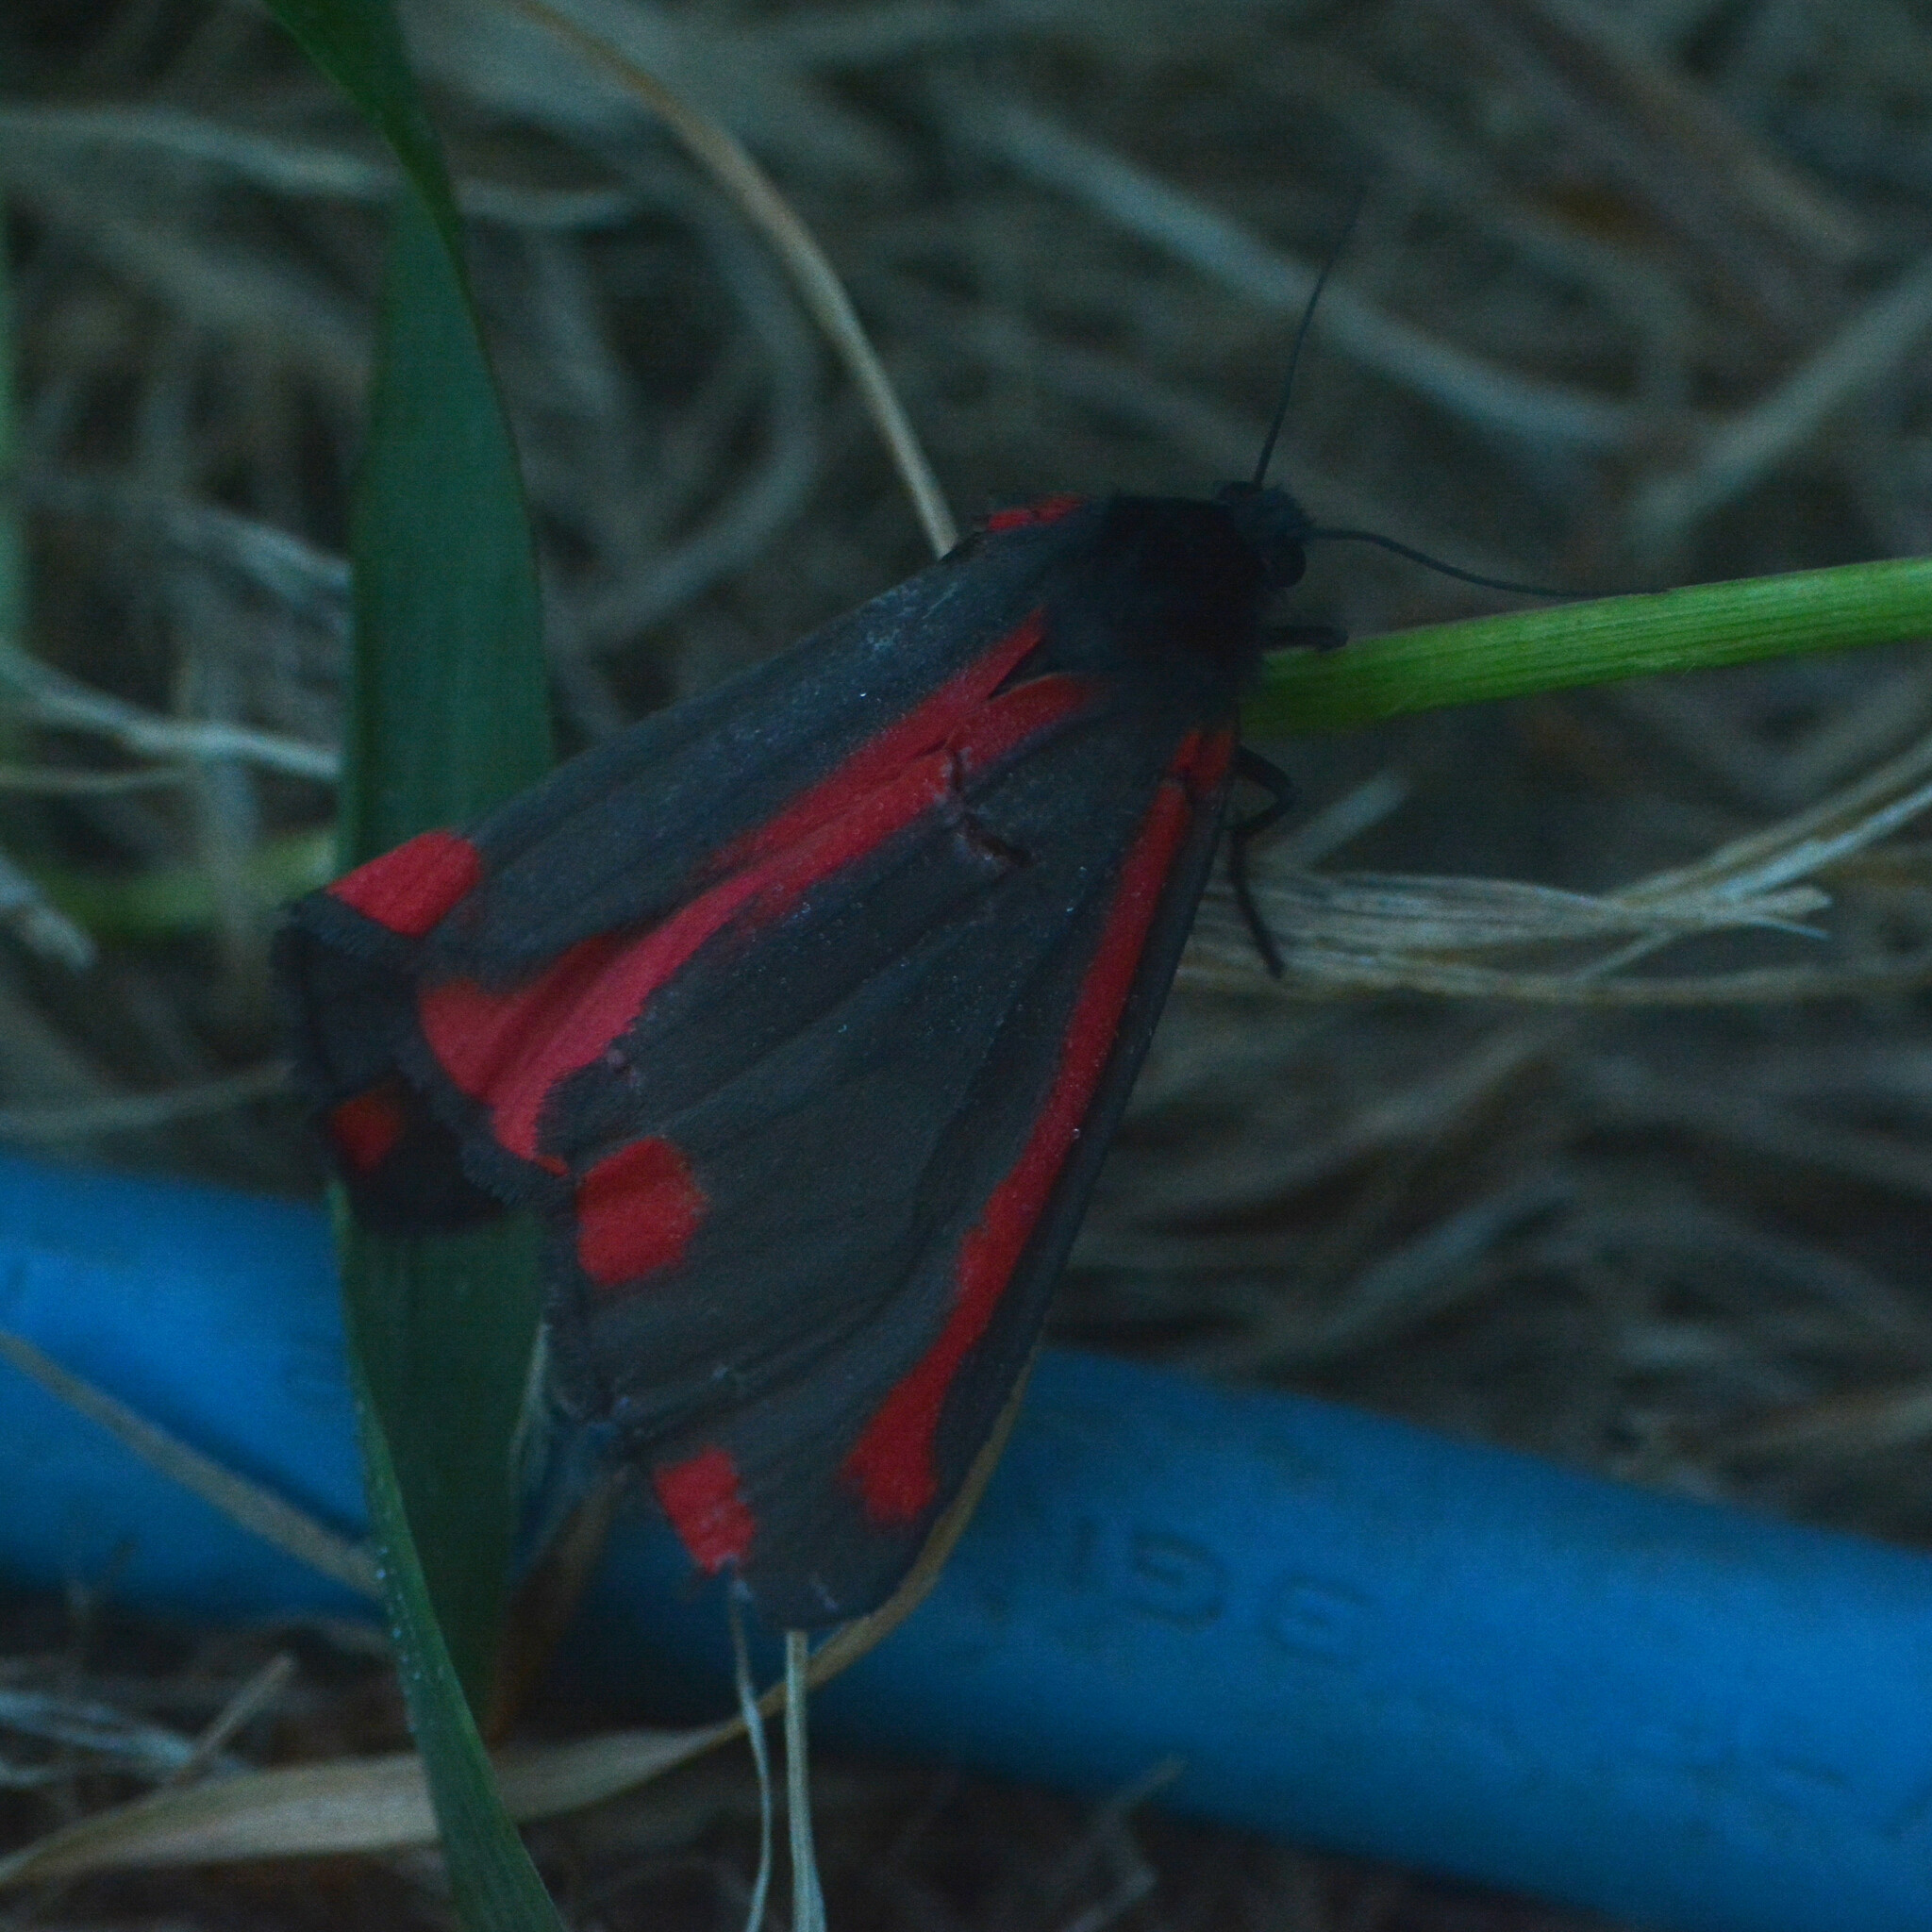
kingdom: Animalia
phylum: Arthropoda
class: Insecta
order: Lepidoptera
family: Erebidae
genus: Tyria
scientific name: Tyria jacobaeae
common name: Cinnabar
